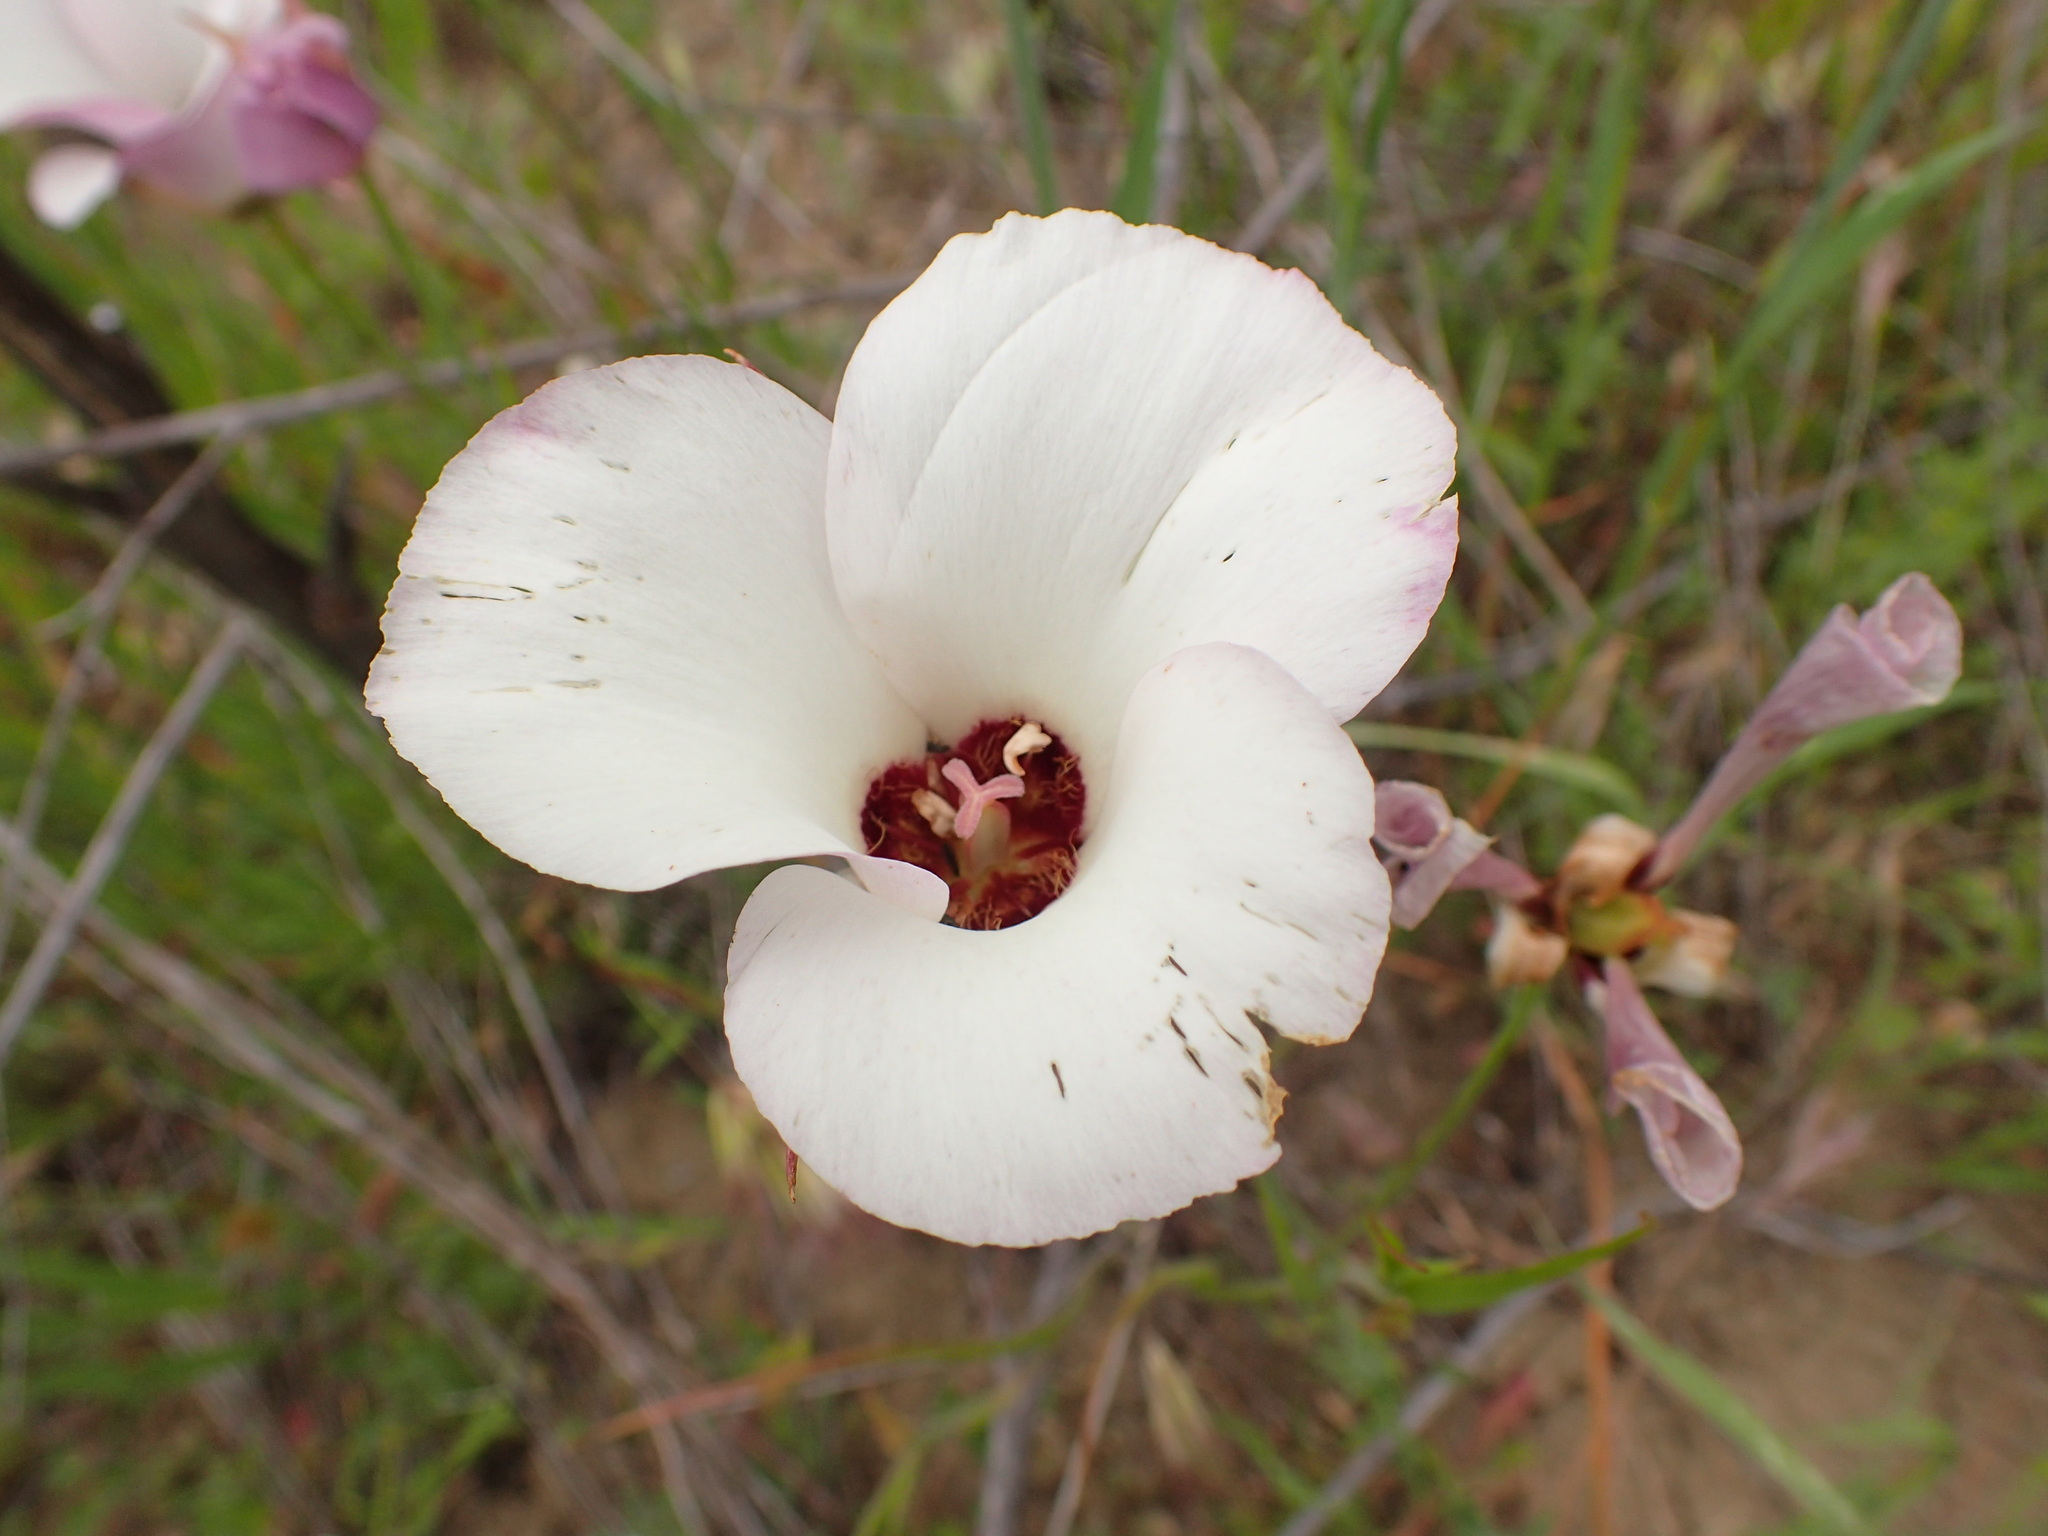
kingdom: Plantae
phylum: Tracheophyta
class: Liliopsida
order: Liliales
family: Liliaceae
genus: Calochortus
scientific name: Calochortus catalinae
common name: Catalina mariposa-lily
